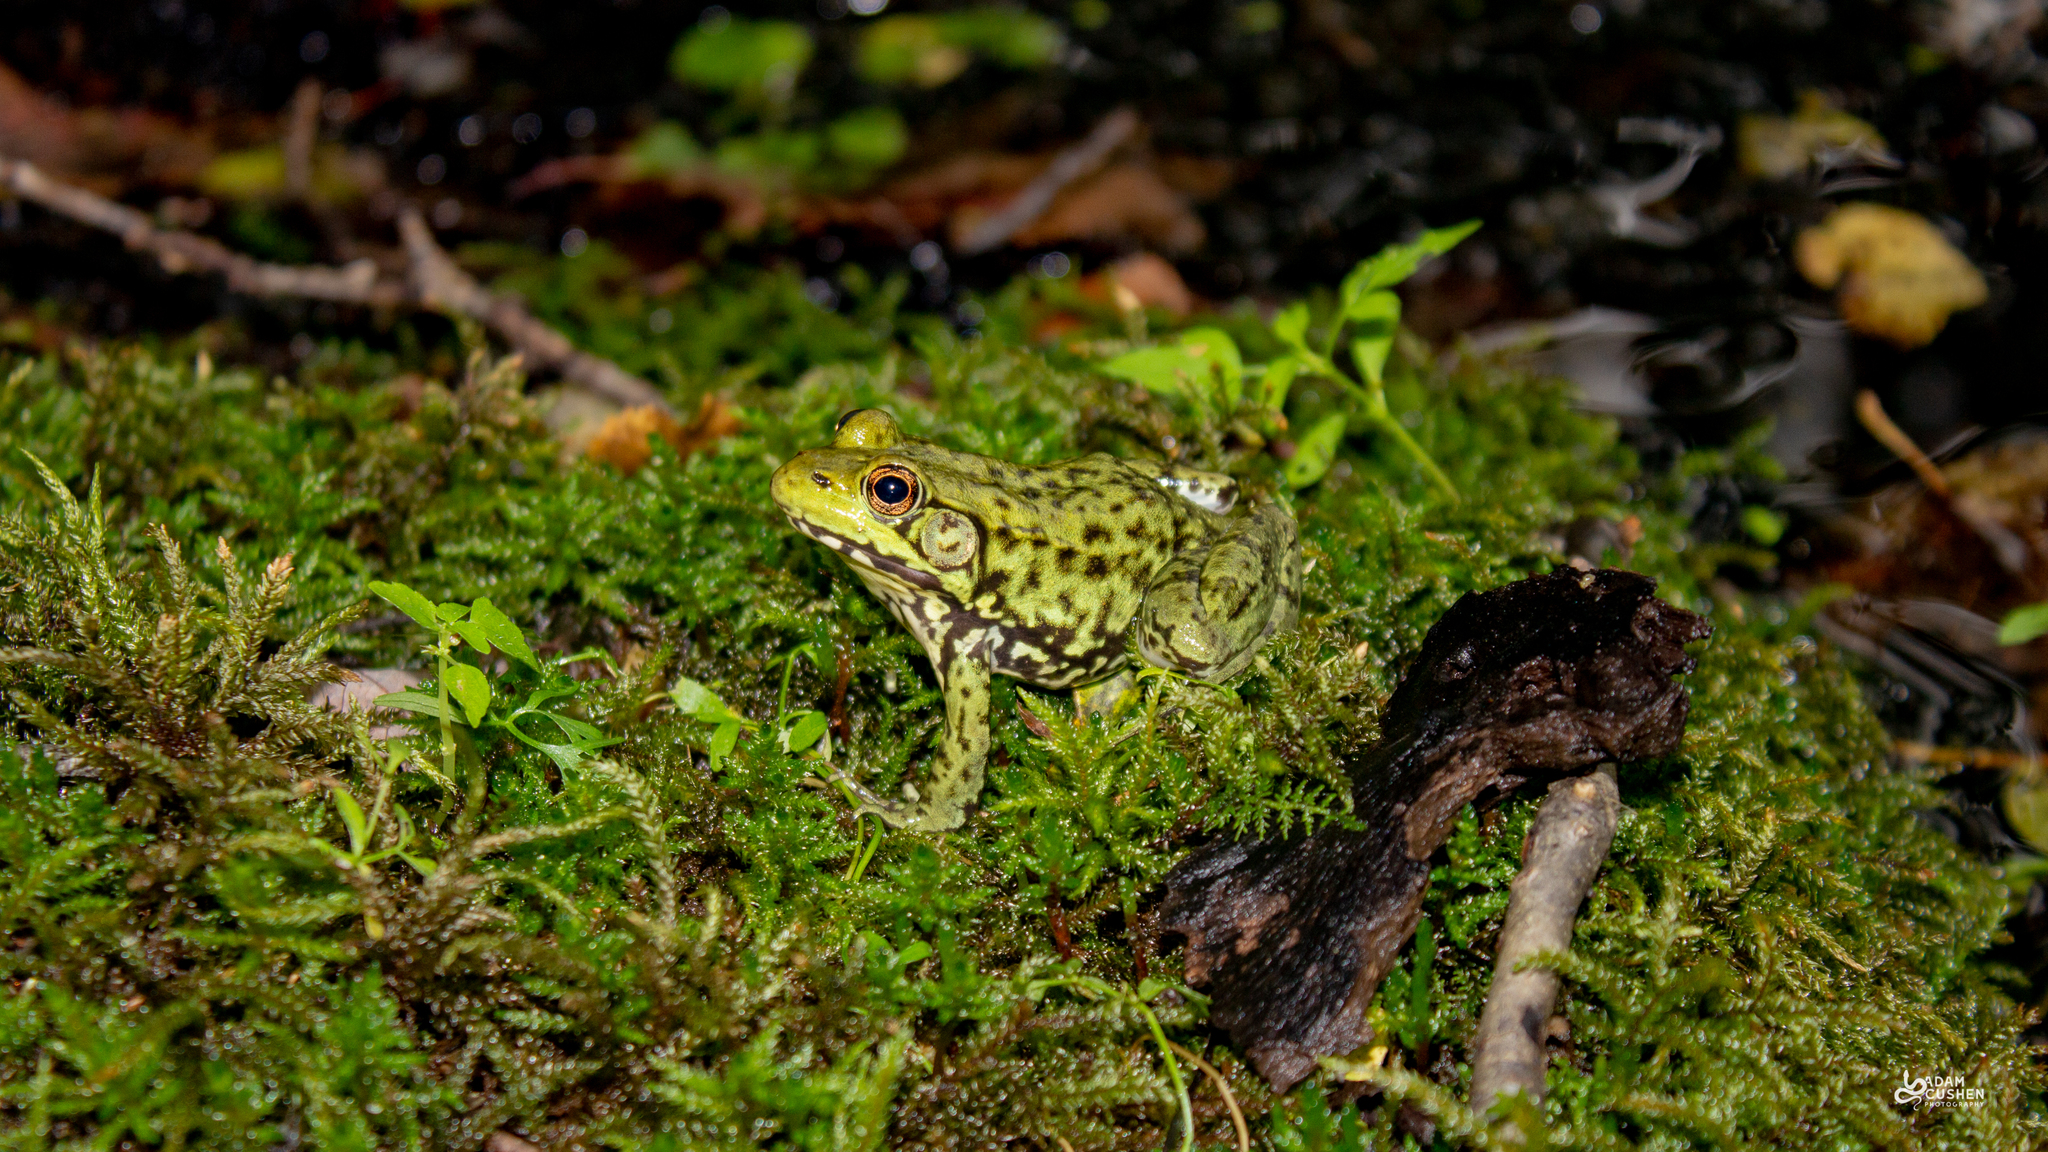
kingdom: Animalia
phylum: Chordata
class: Amphibia
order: Anura
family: Ranidae
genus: Lithobates
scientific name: Lithobates clamitans
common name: Green frog
